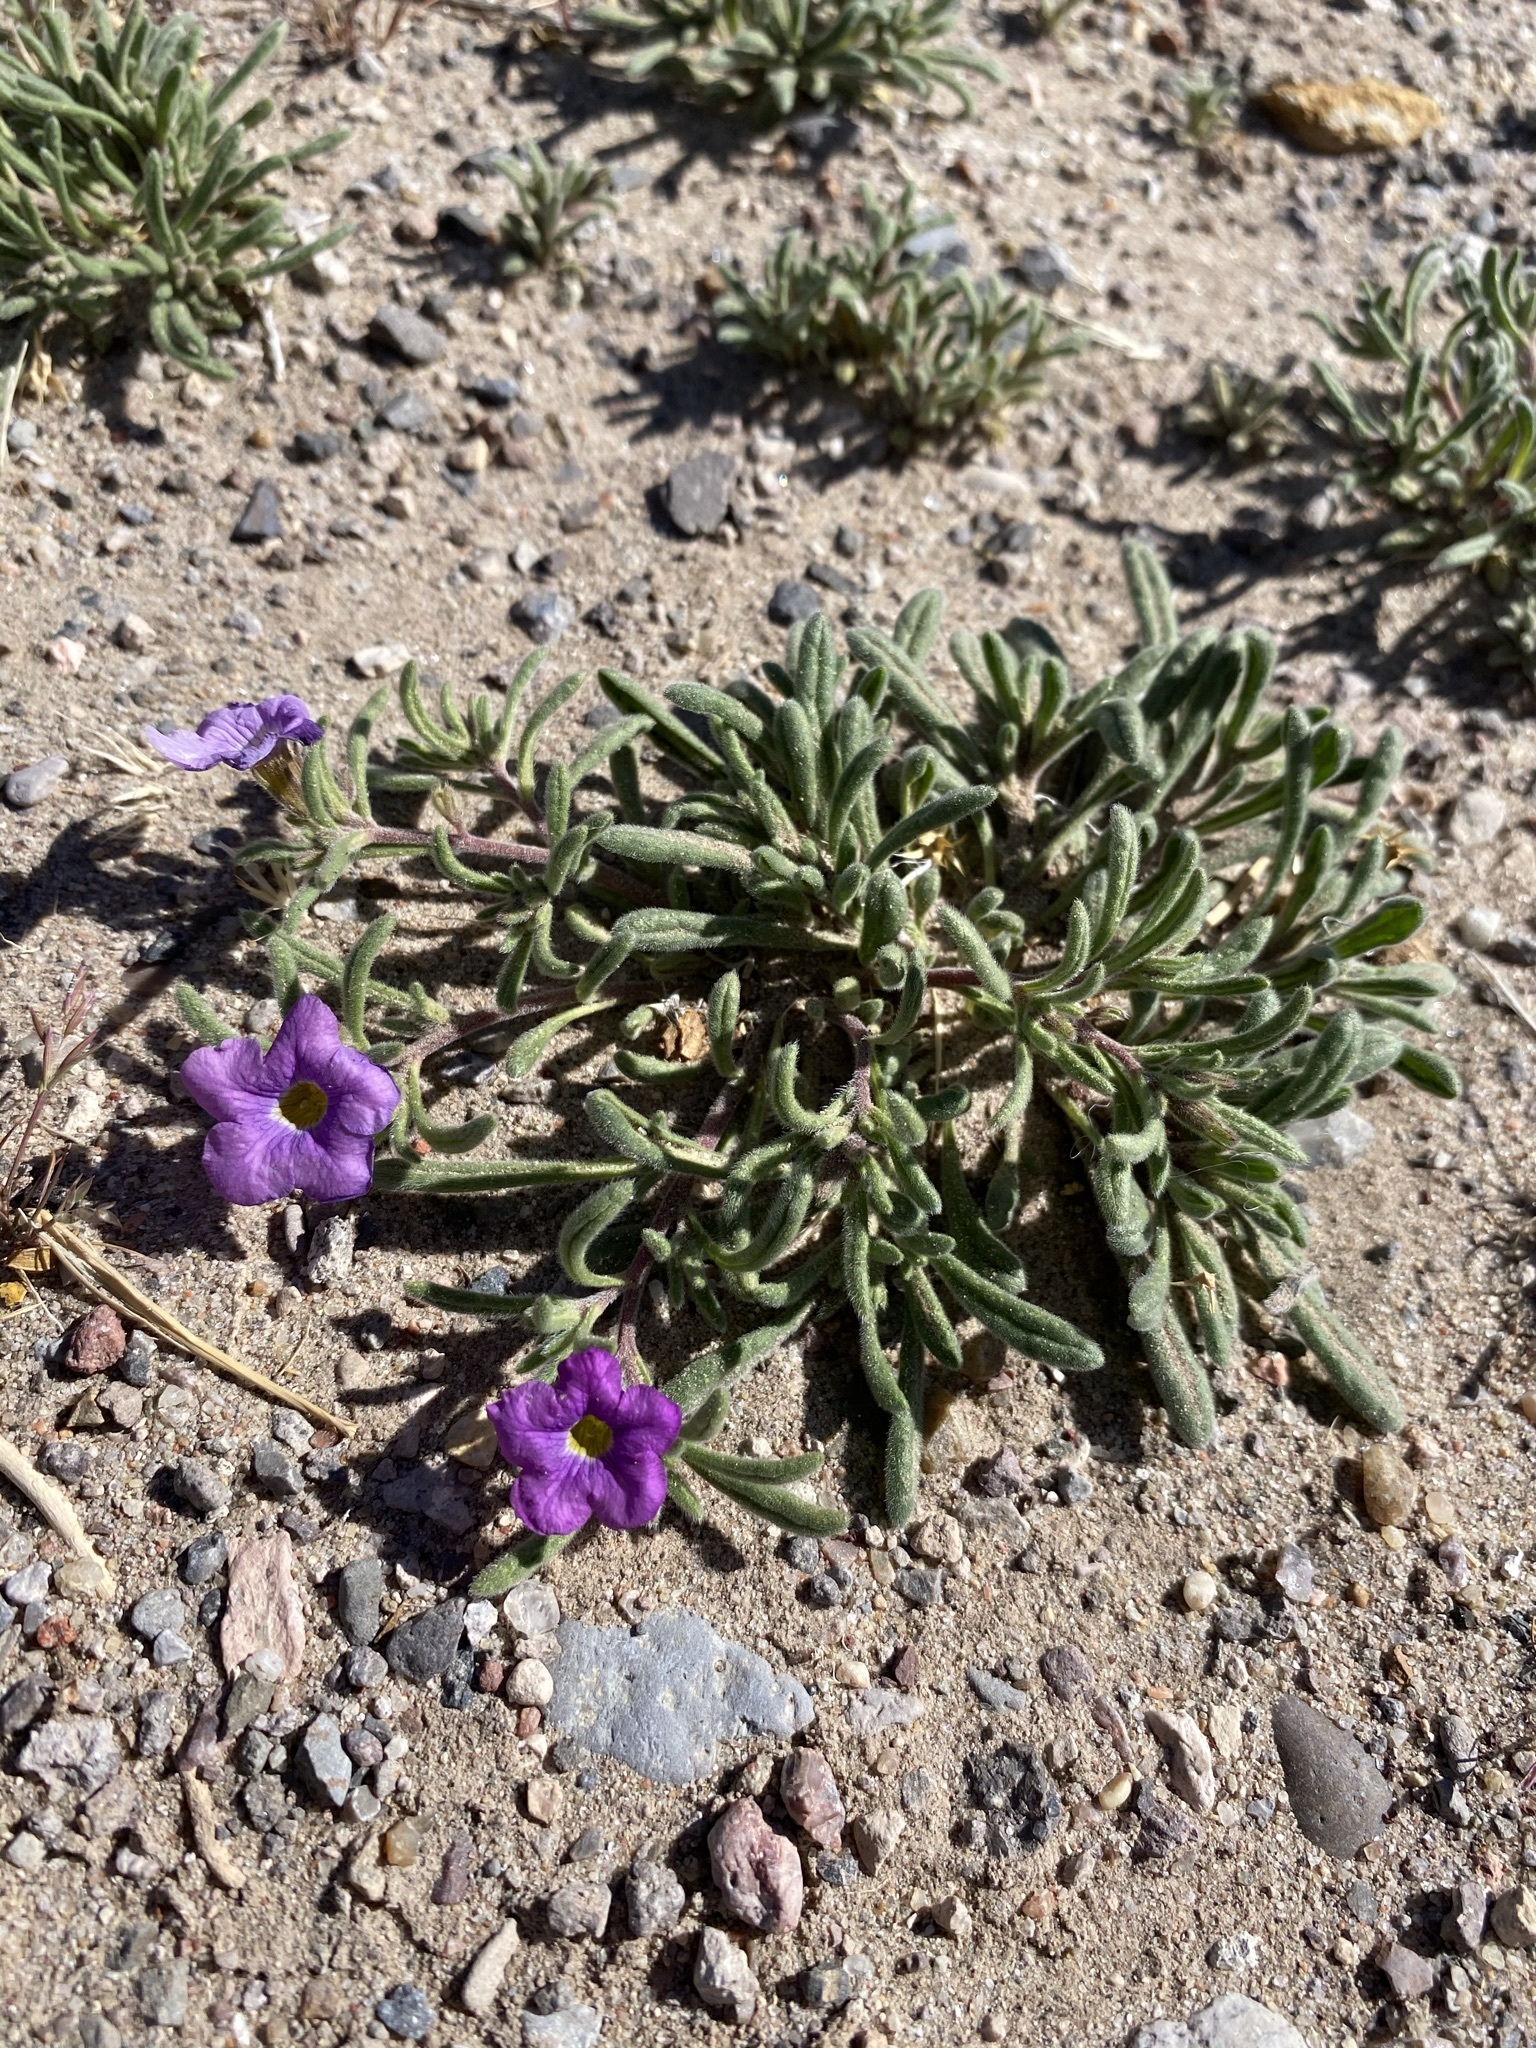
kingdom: Plantae
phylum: Tracheophyta
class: Magnoliopsida
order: Boraginales
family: Namaceae
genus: Nama
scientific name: Nama hispida
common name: Bristly nama
